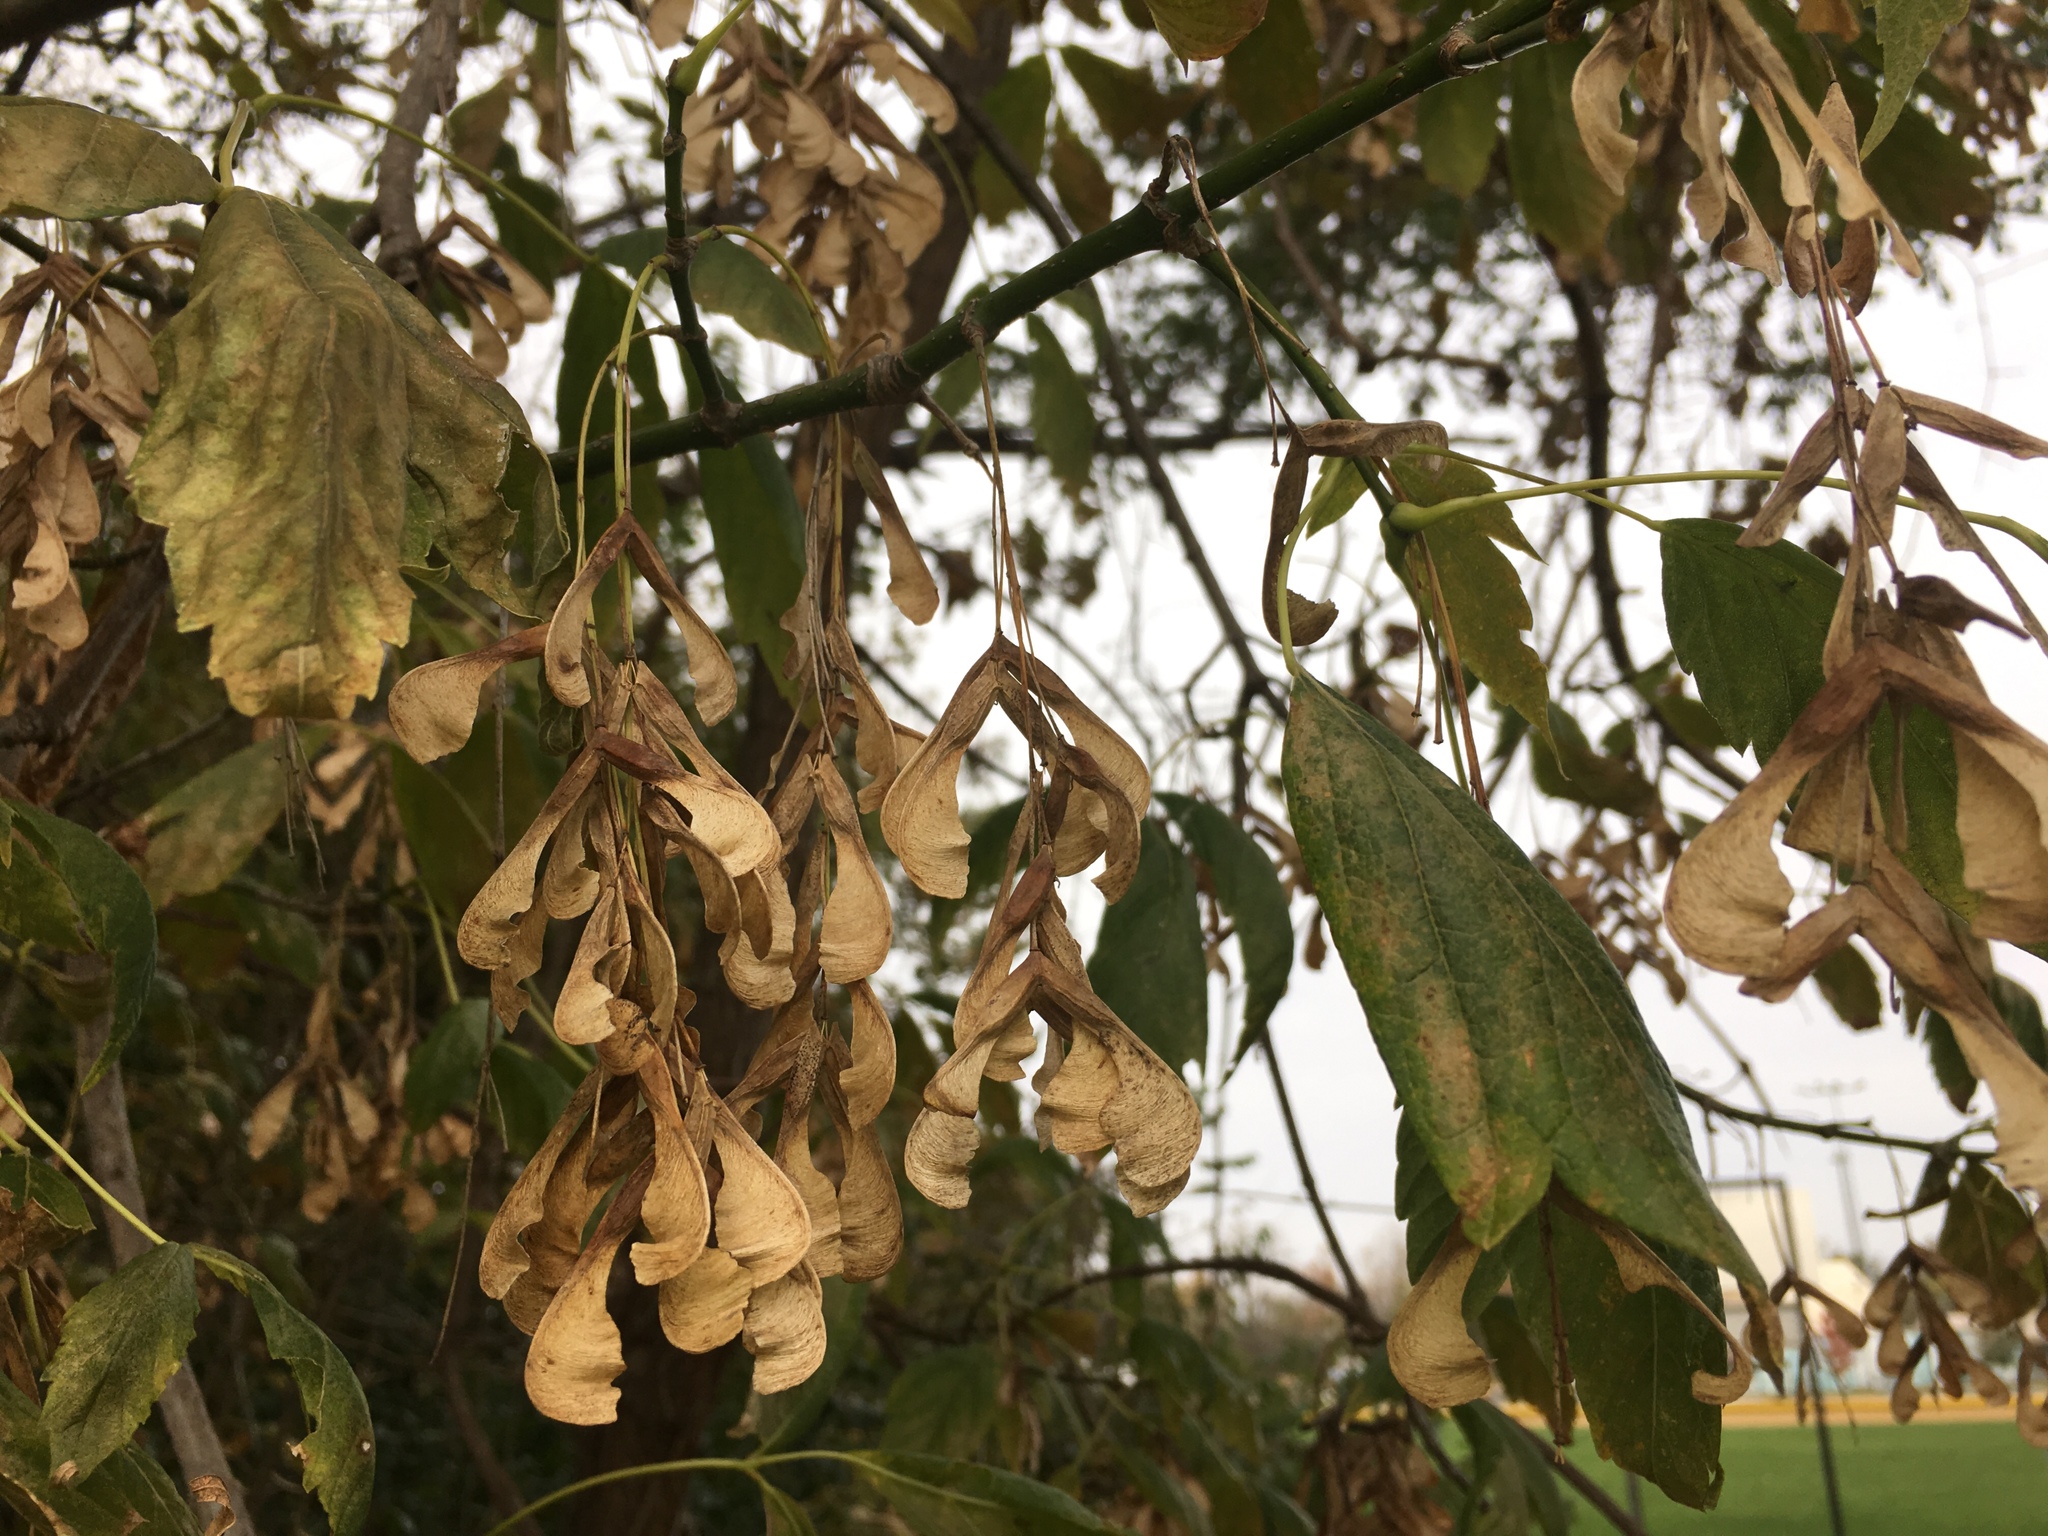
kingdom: Plantae
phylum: Tracheophyta
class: Magnoliopsida
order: Sapindales
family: Sapindaceae
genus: Acer
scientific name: Acer negundo
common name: Ashleaf maple
